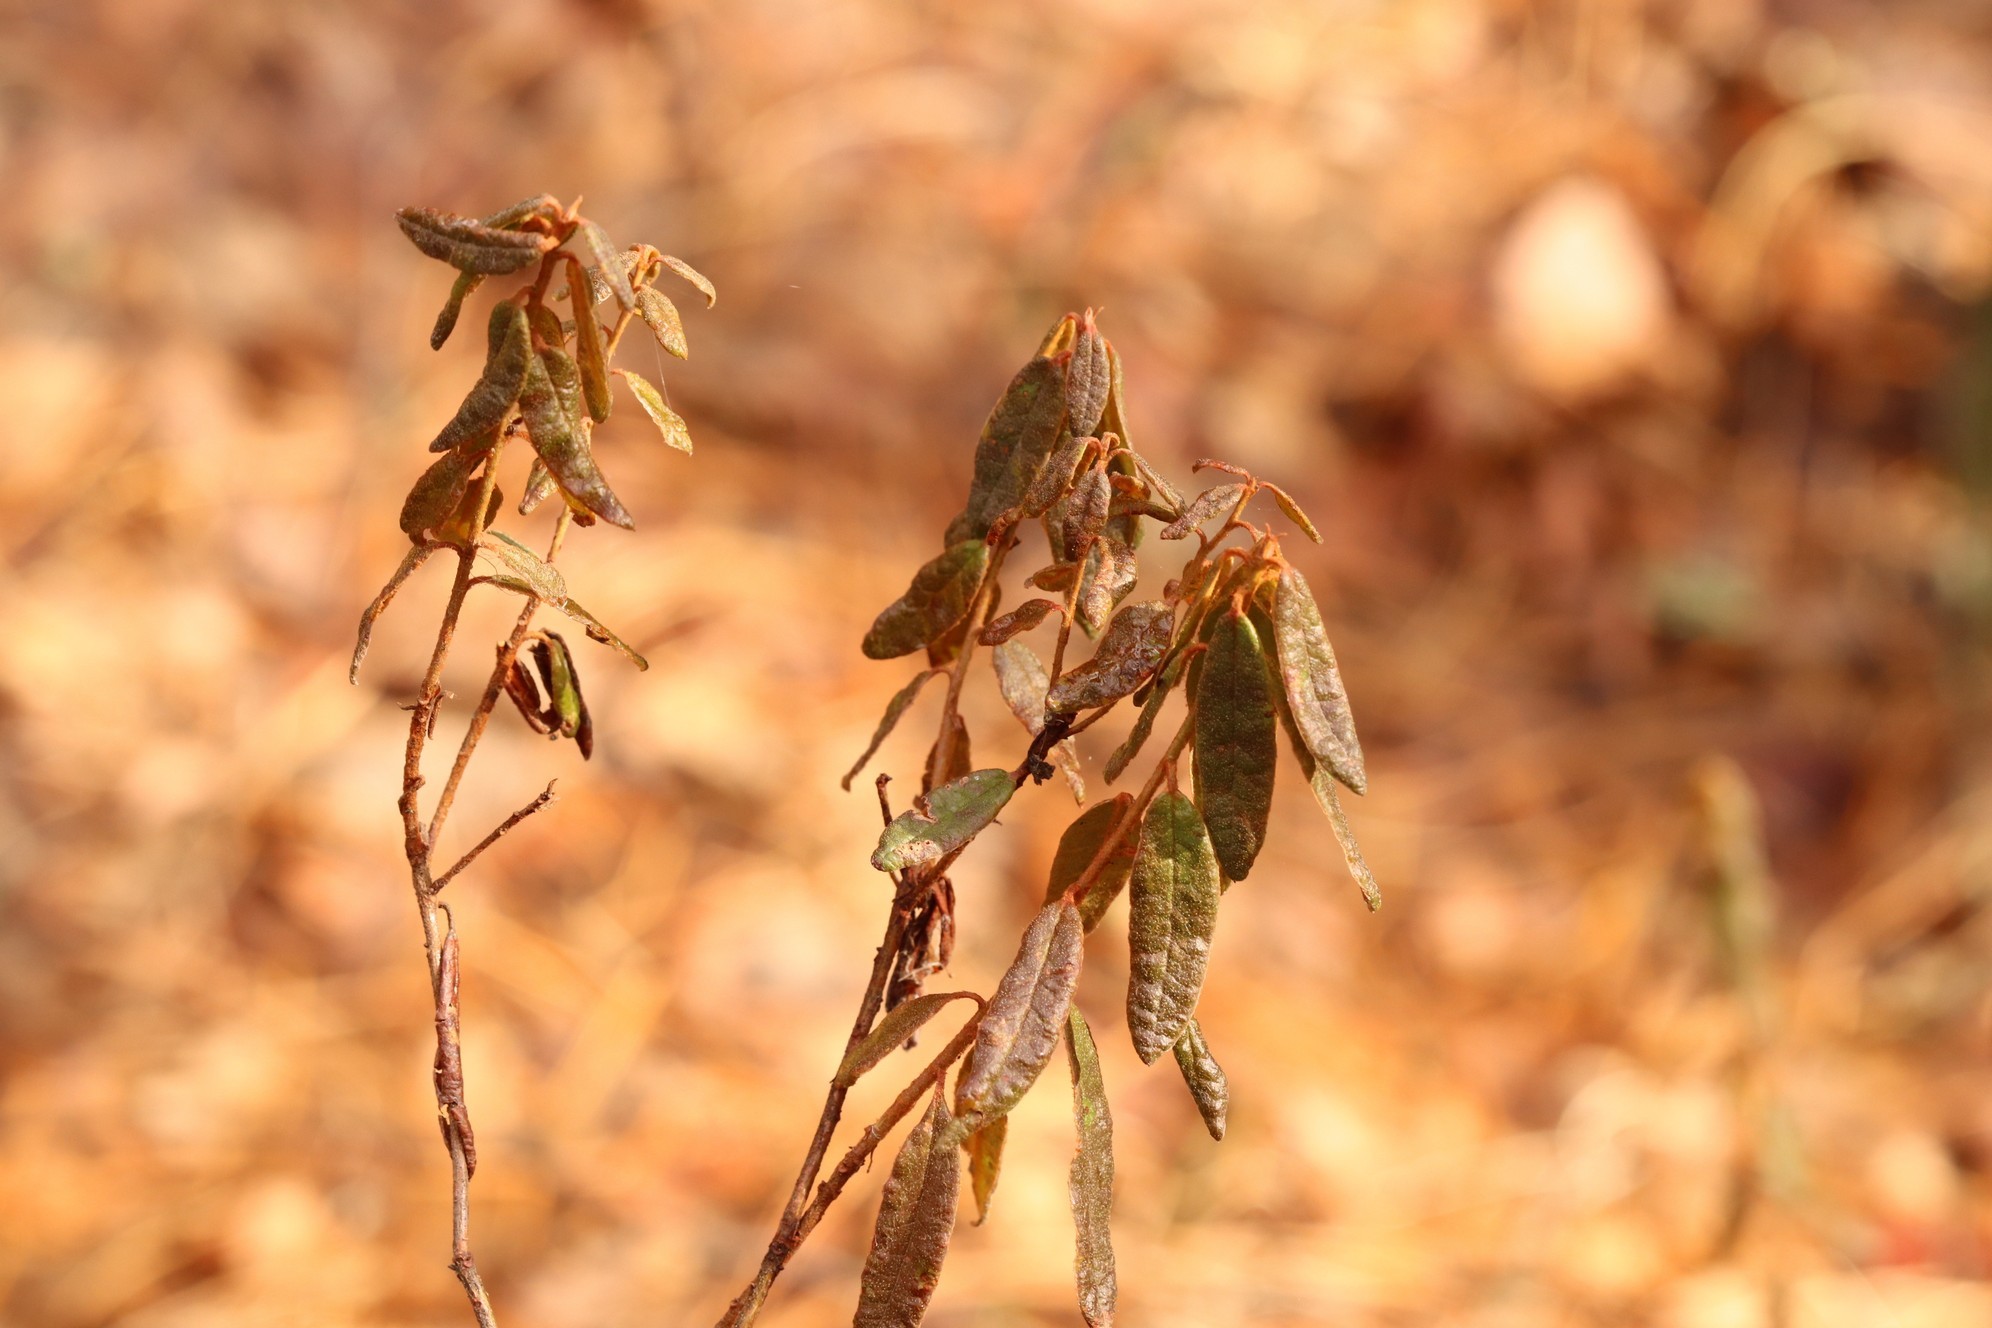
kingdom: Plantae
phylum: Tracheophyta
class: Magnoliopsida
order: Ericales
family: Ericaceae
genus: Rhododendron
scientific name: Rhododendron tomentosum
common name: Marsh labrador tea
